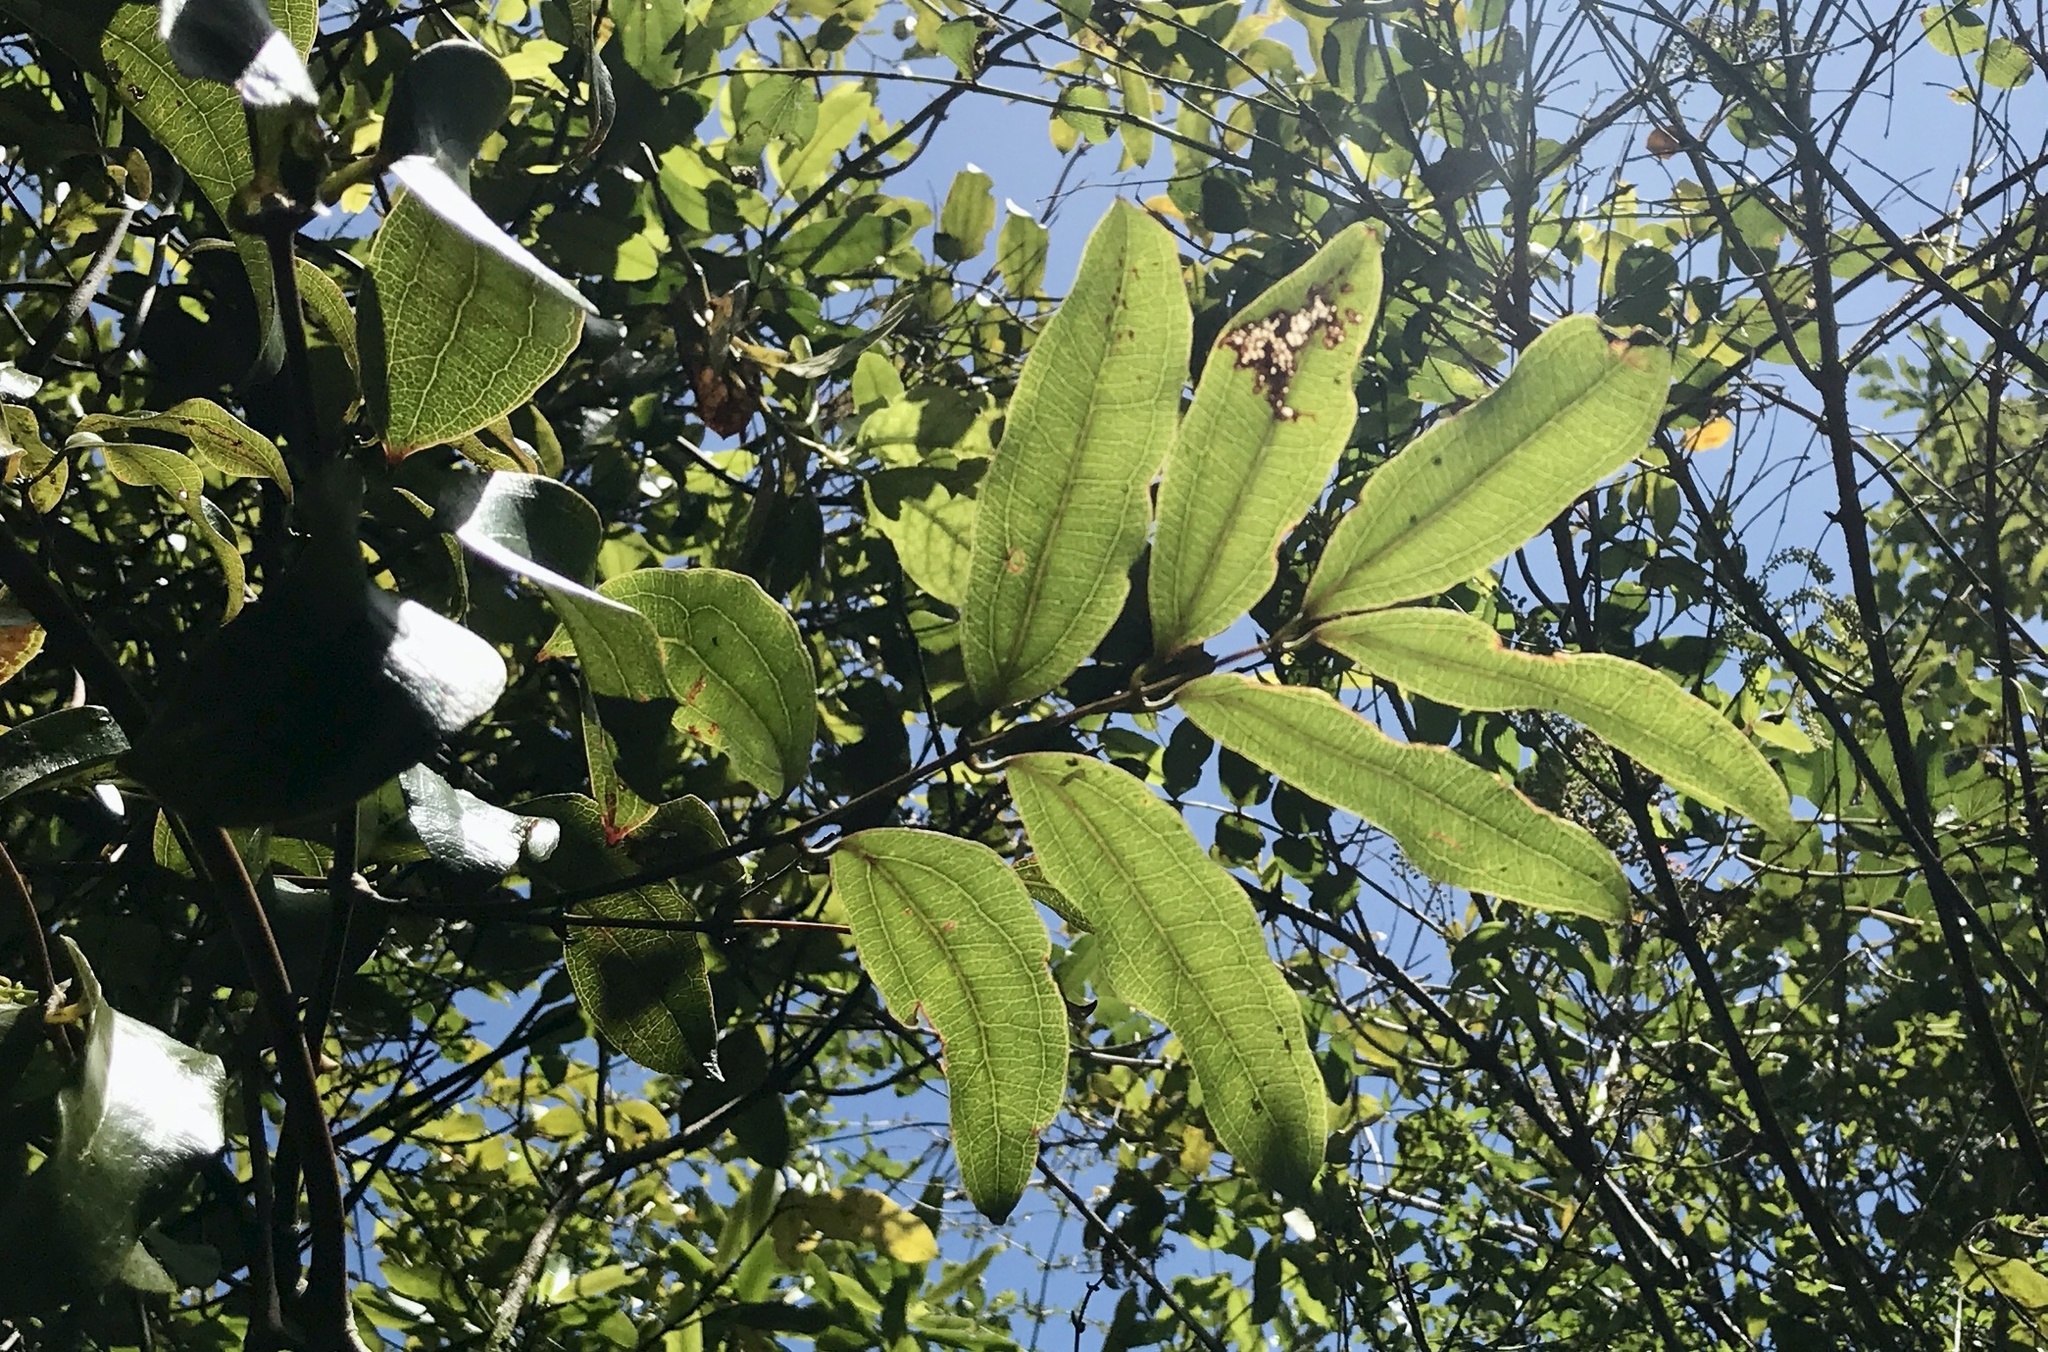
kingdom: Plantae
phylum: Tracheophyta
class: Liliopsida
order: Liliales
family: Ripogonaceae
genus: Ripogonum
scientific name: Ripogonum scandens
